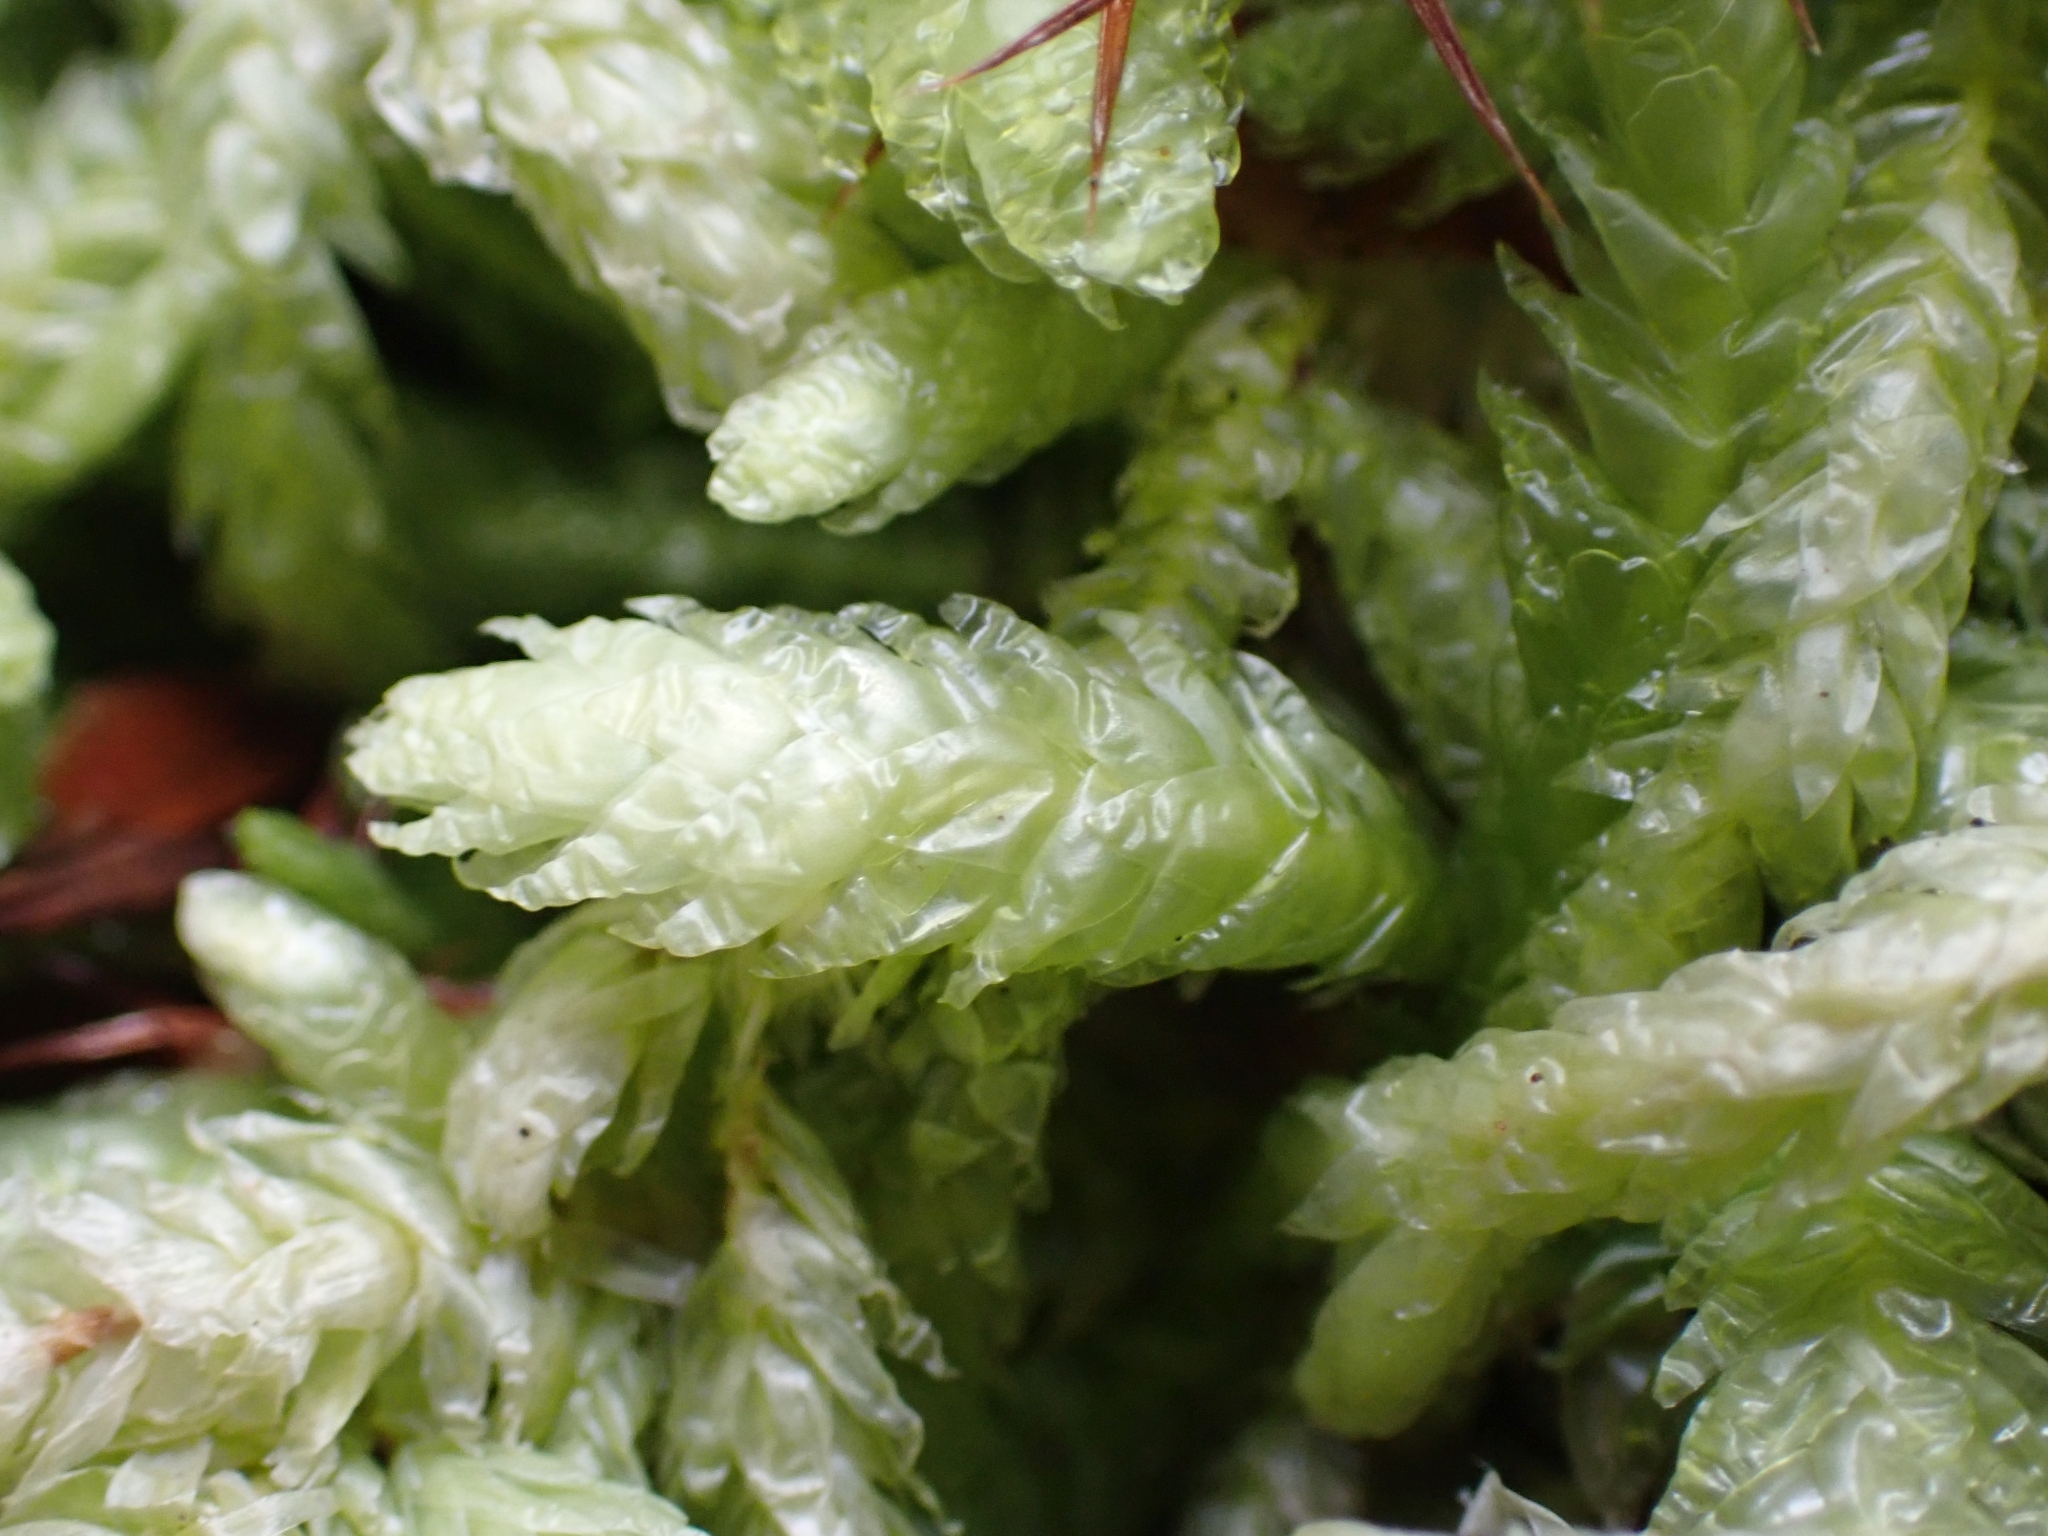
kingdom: Plantae
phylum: Bryophyta
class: Bryopsida
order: Hypnales
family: Plagiotheciaceae
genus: Plagiothecium
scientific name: Plagiothecium undulatum
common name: Waved silk-moss
